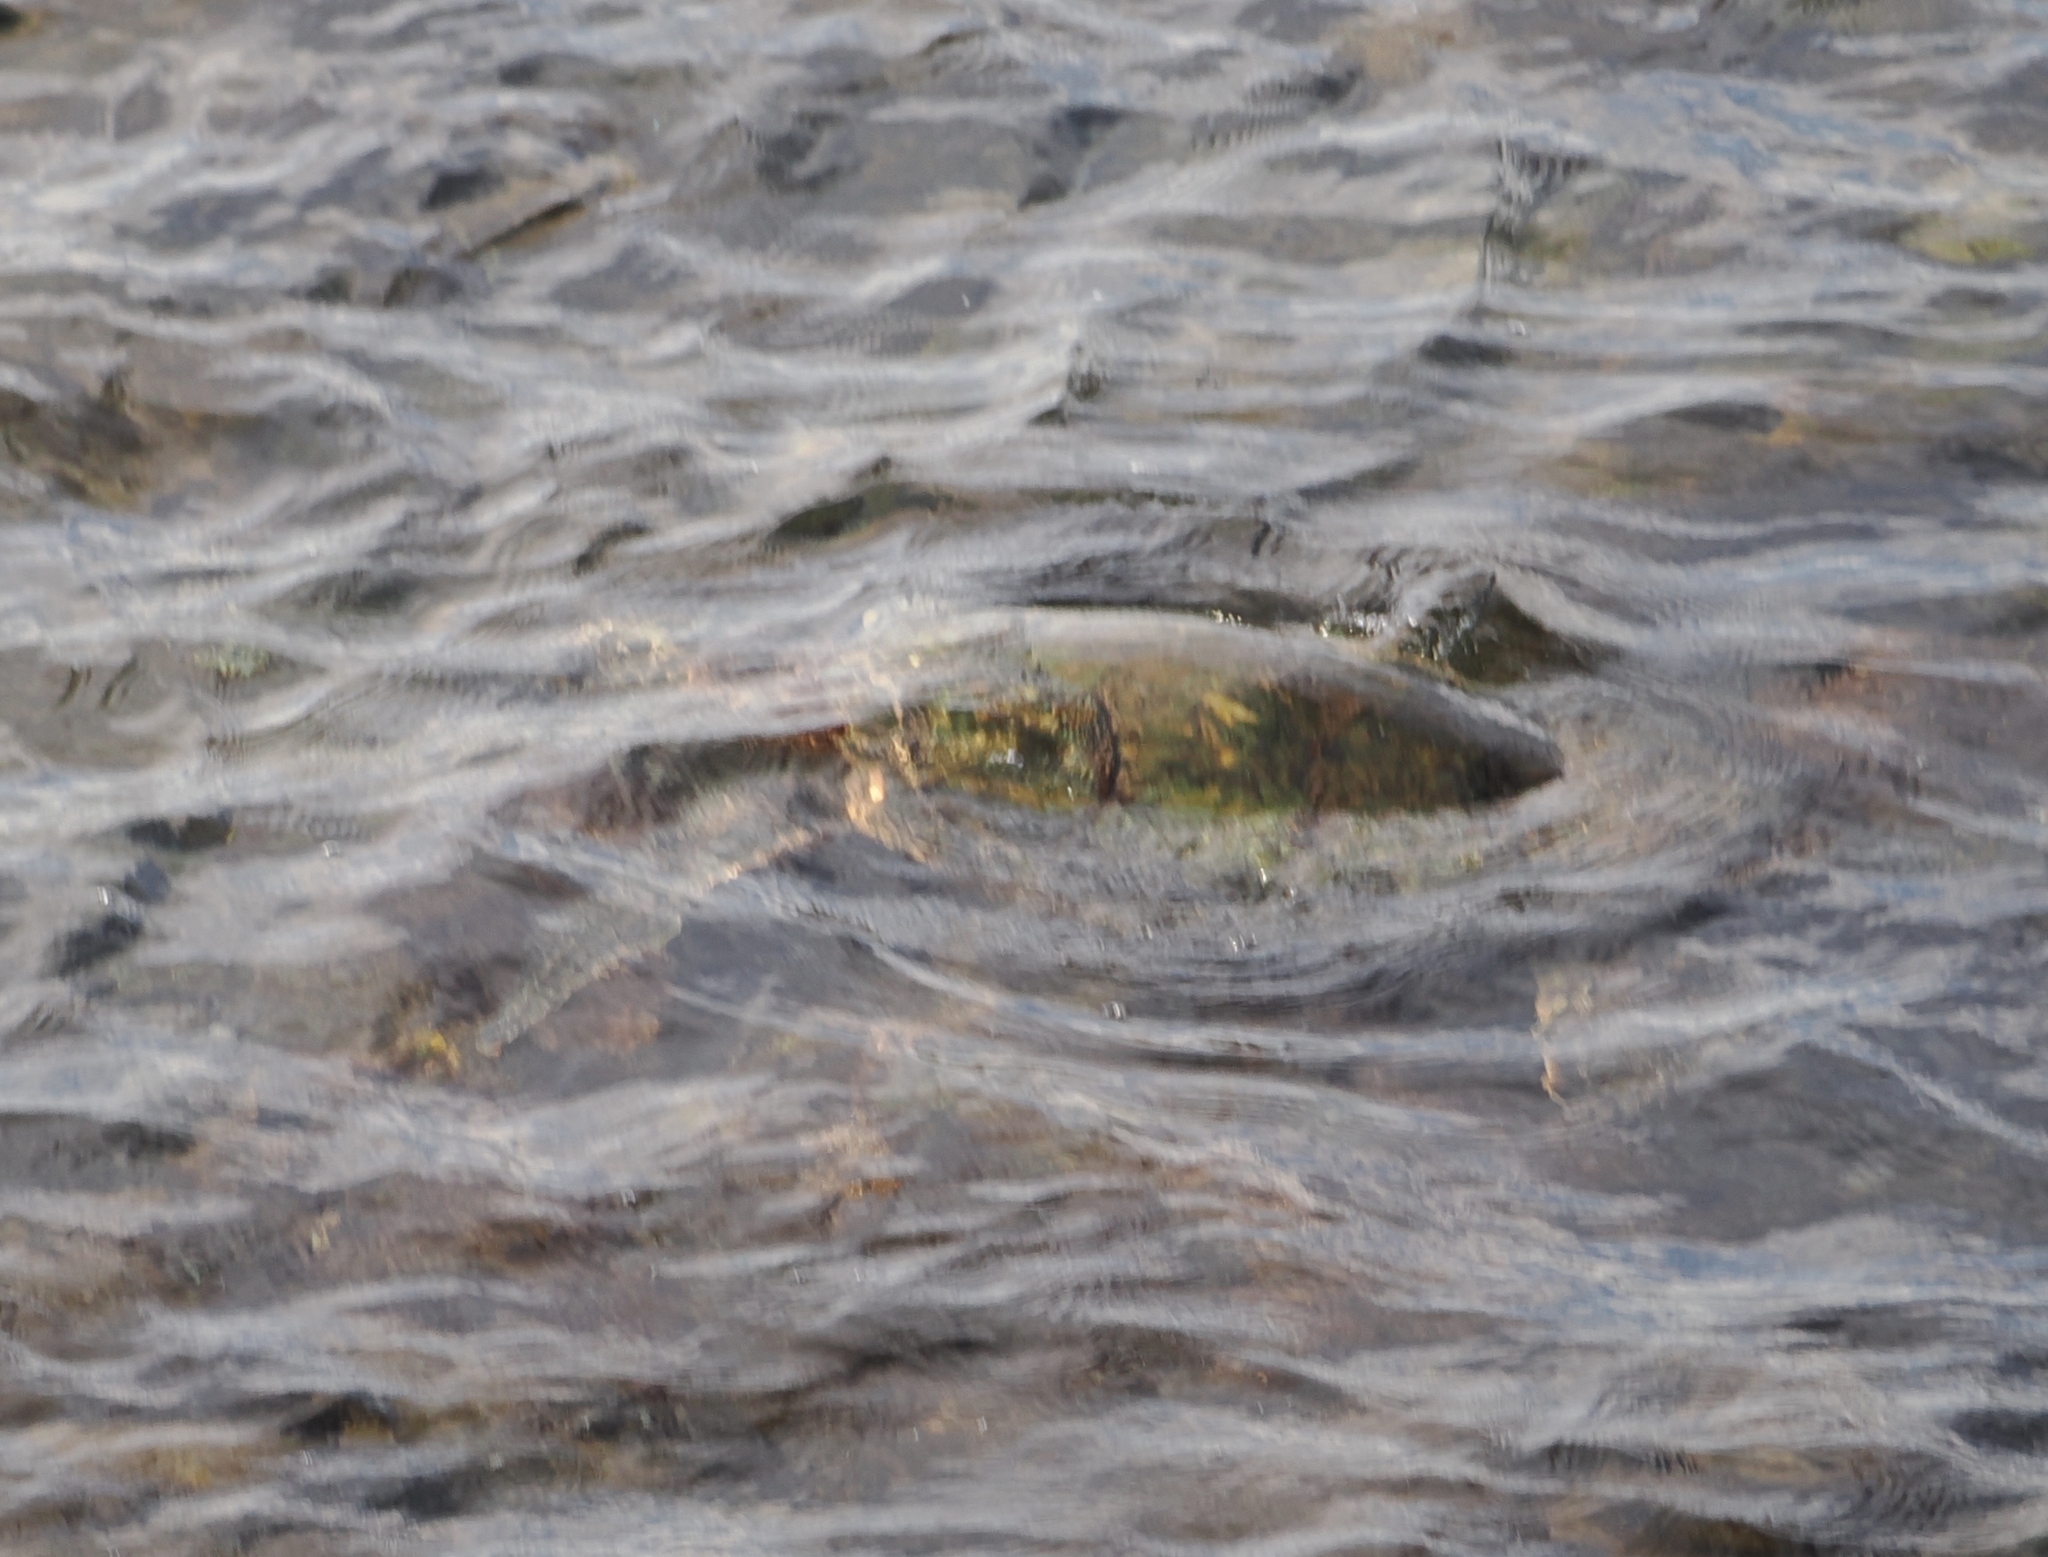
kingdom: Animalia
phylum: Chordata
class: Testudines
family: Cheloniidae
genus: Chelonia
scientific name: Chelonia mydas
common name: Green turtle
